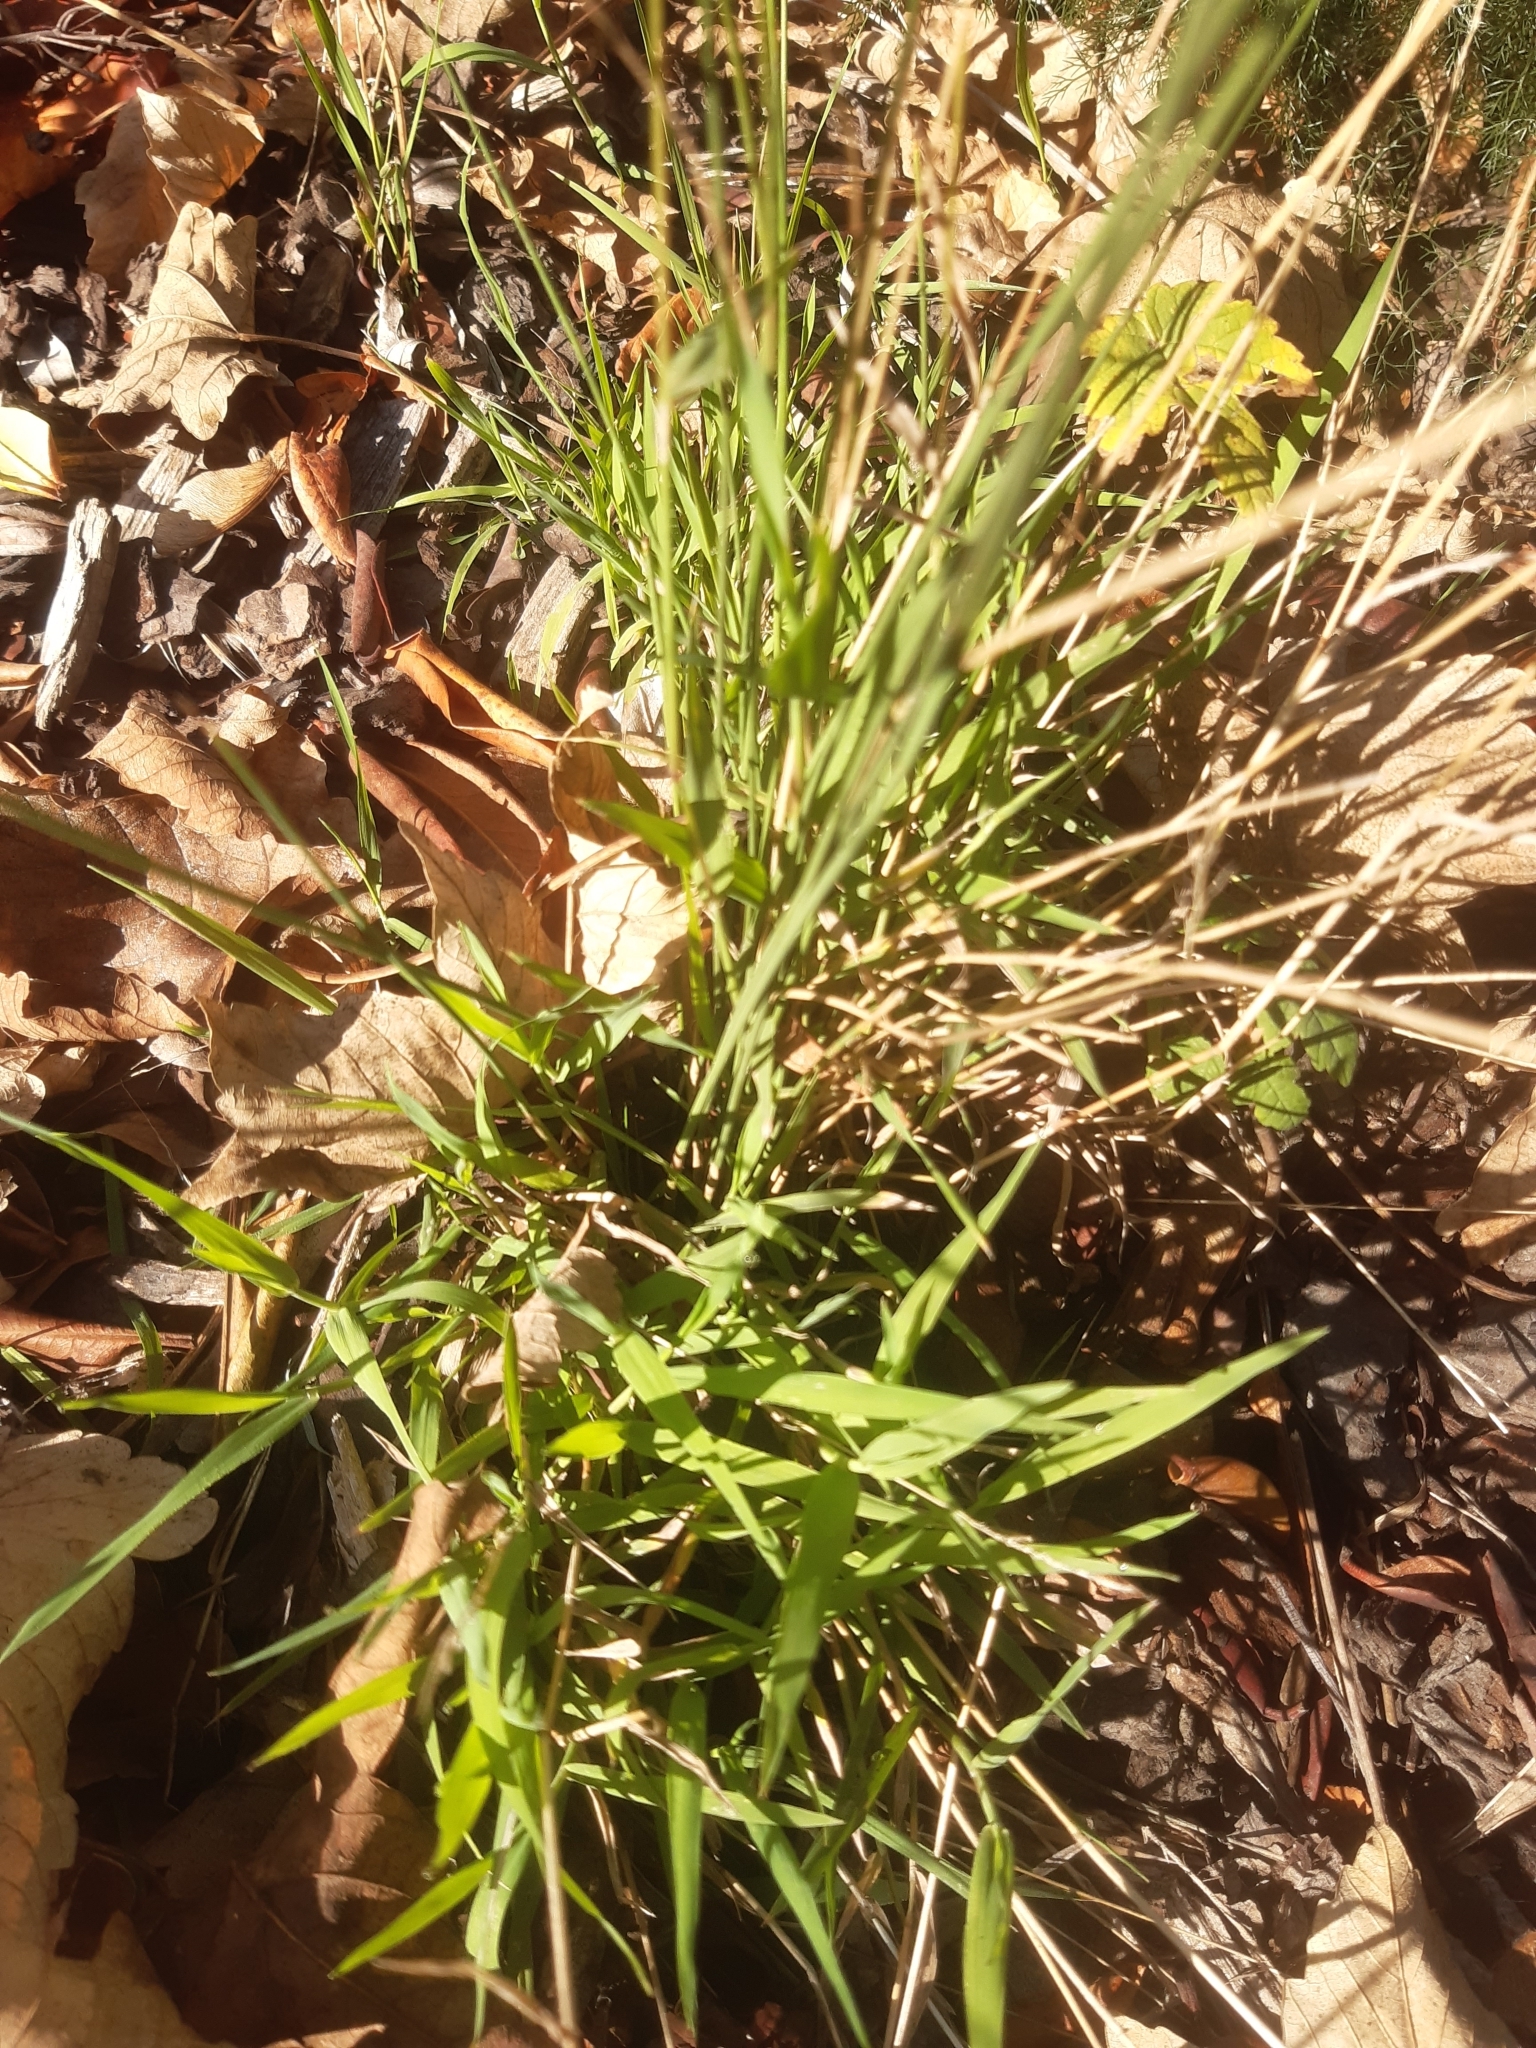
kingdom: Plantae
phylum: Tracheophyta
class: Liliopsida
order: Poales
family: Poaceae
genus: Ehrharta
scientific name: Ehrharta erecta
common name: Panic veldtgrass
